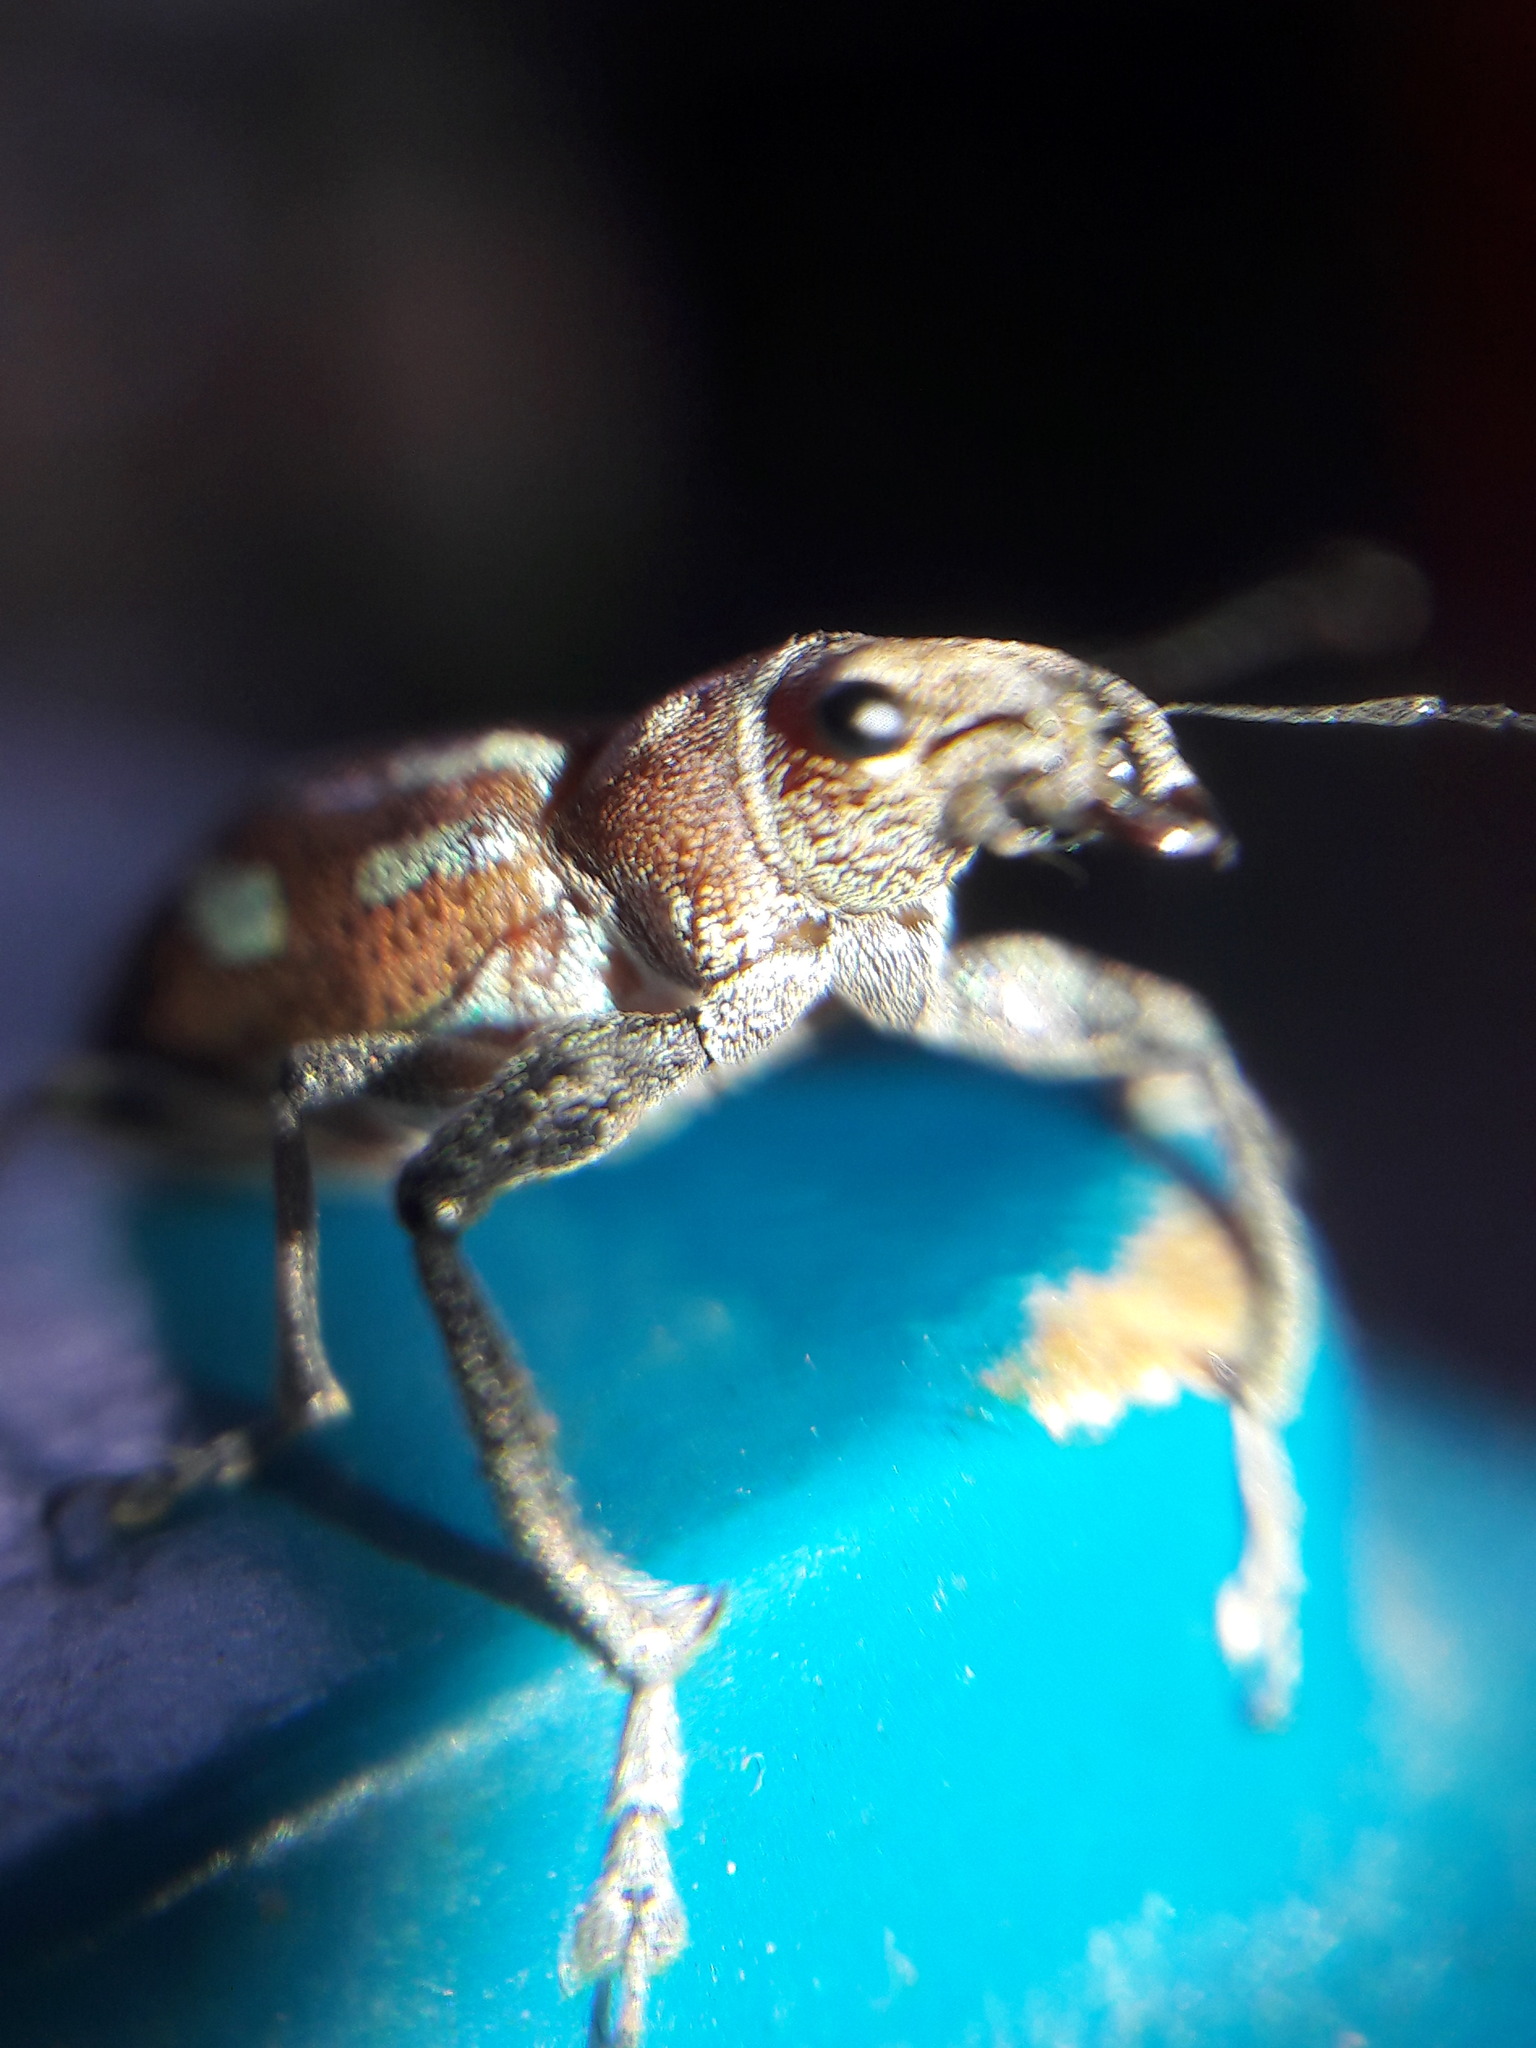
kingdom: Animalia
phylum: Arthropoda
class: Insecta
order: Coleoptera
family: Curculionidae
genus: Naupactus
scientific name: Naupactus bellus
